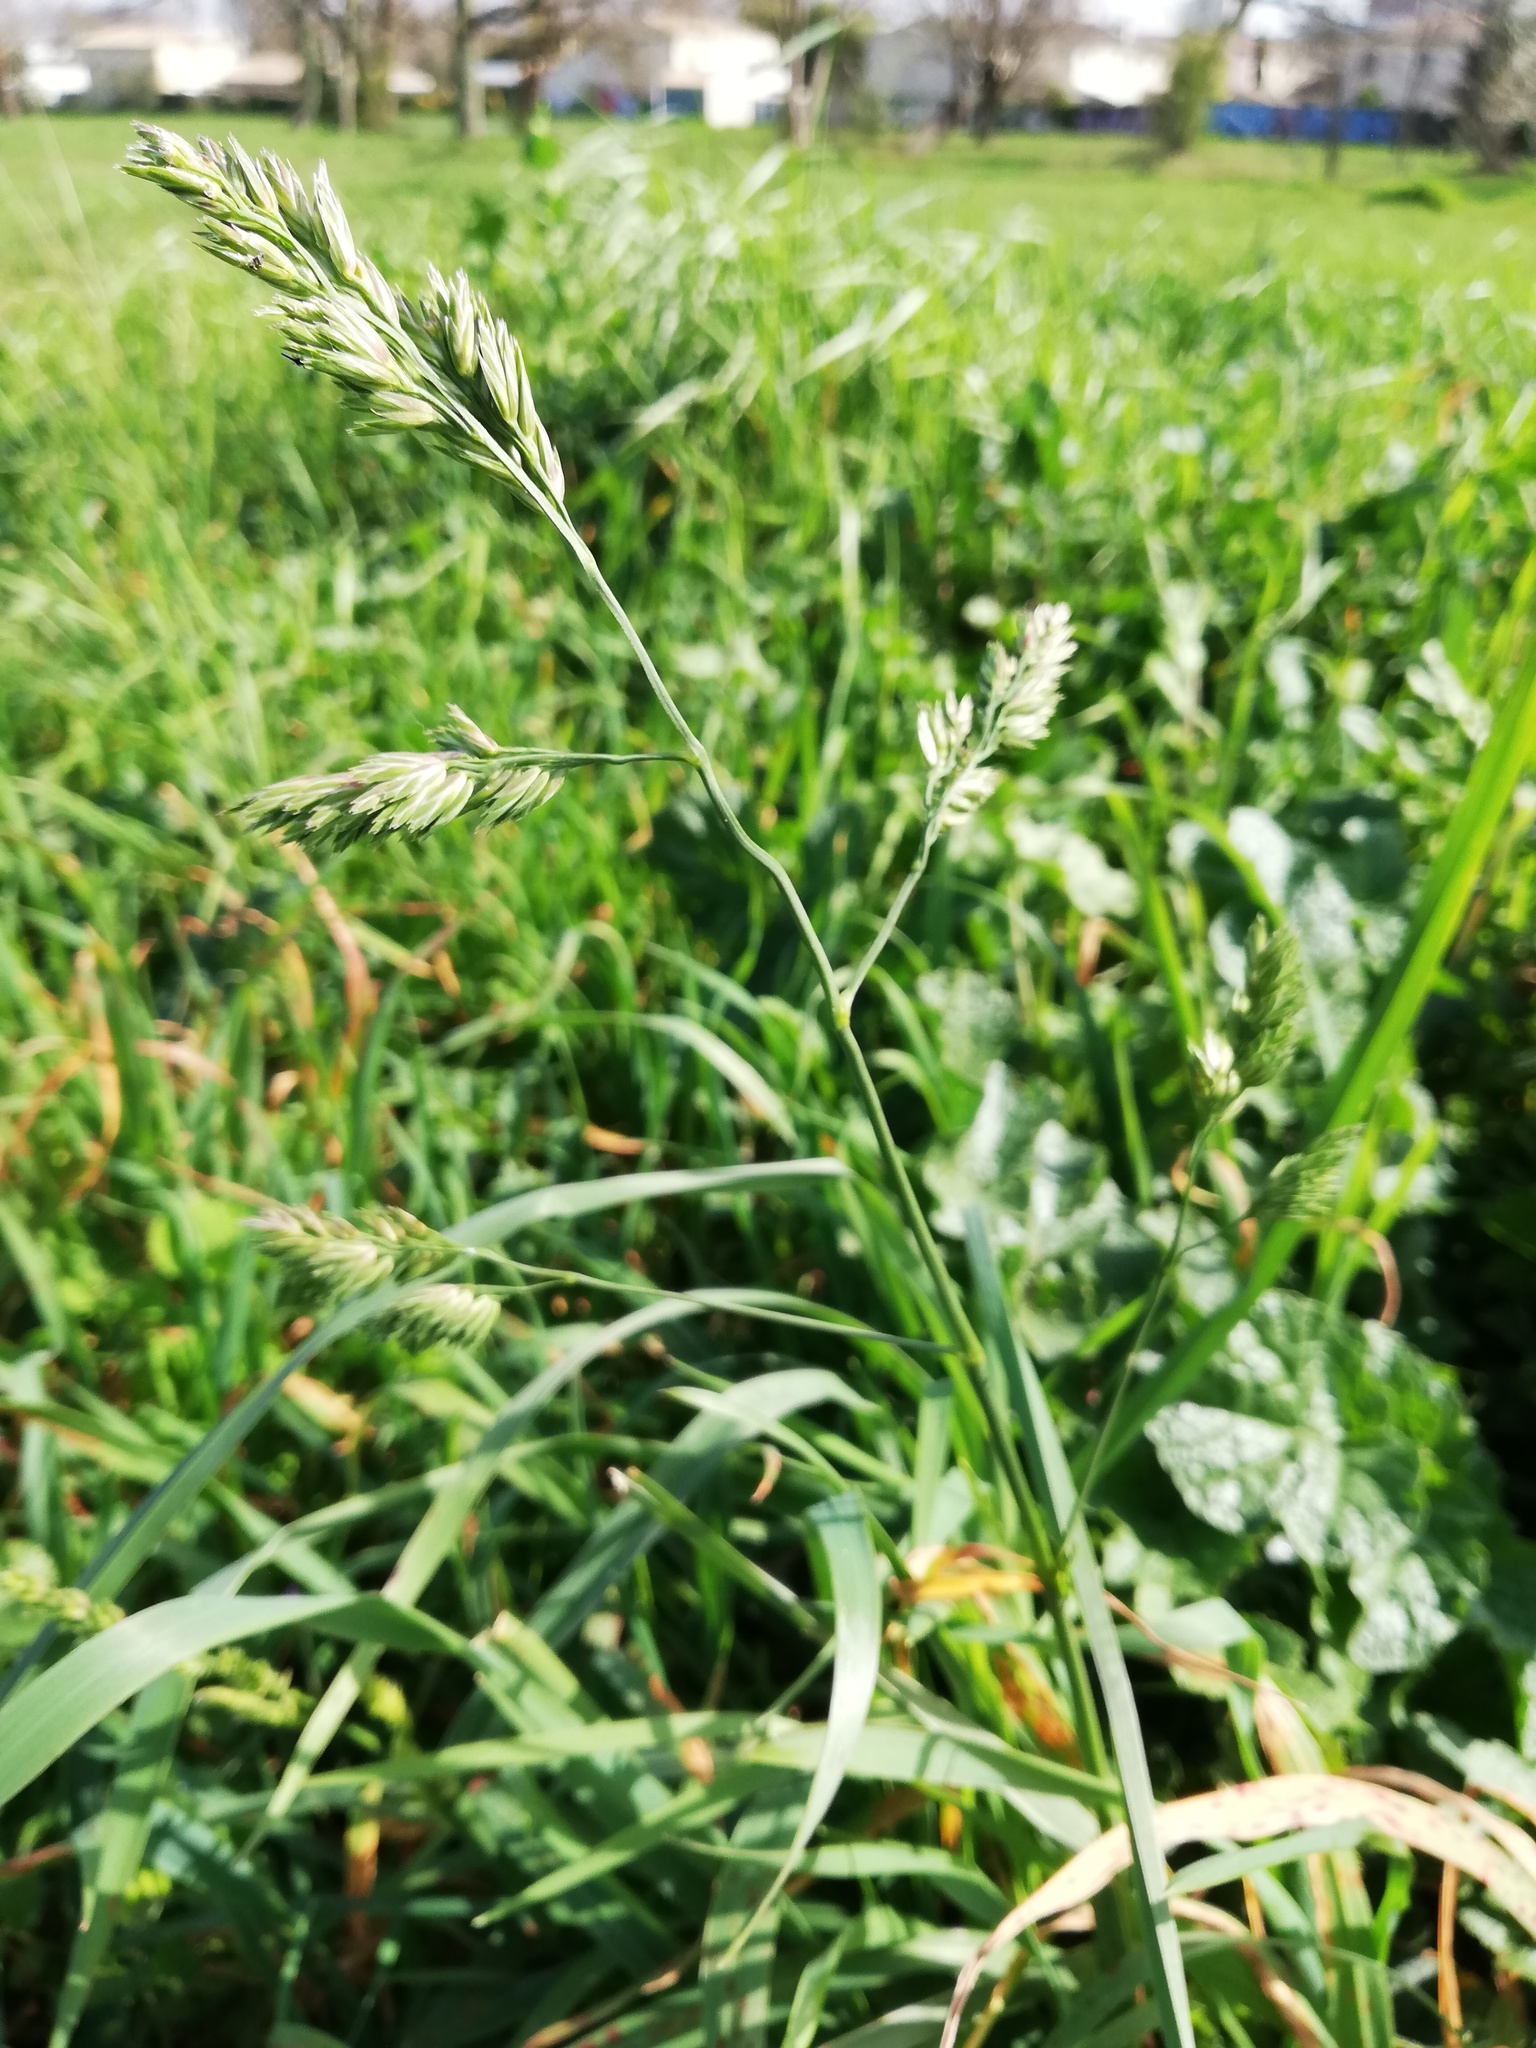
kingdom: Plantae
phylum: Tracheophyta
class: Liliopsida
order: Poales
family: Poaceae
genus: Dactylis
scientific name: Dactylis glomerata
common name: Orchardgrass
